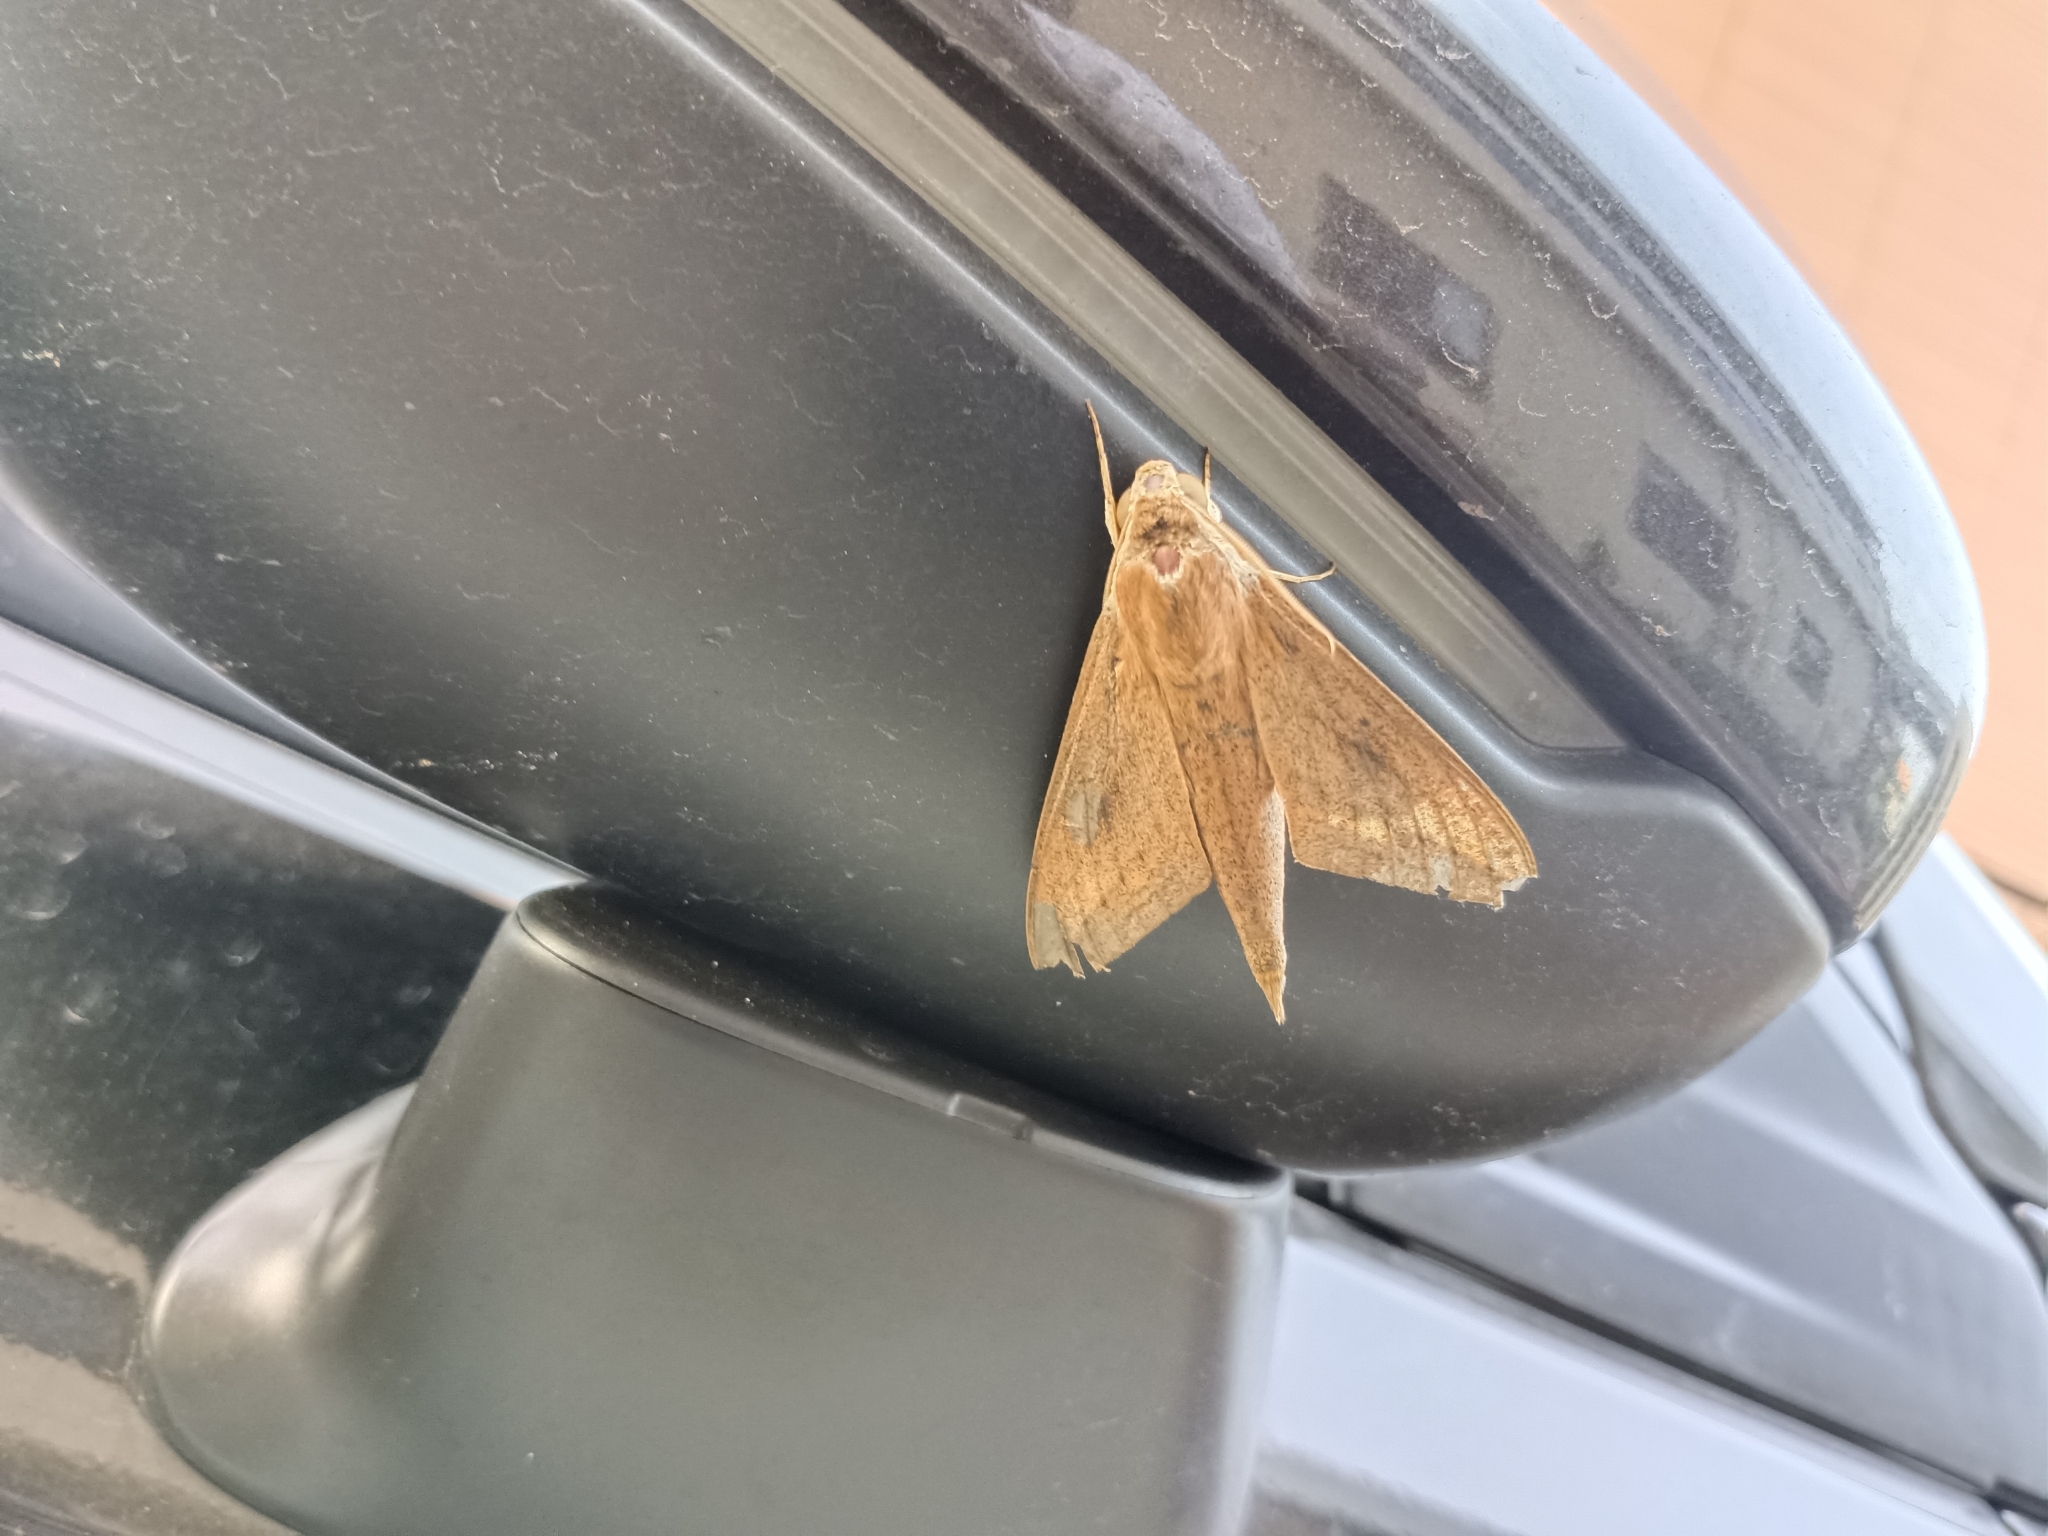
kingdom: Animalia
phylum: Arthropoda
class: Insecta
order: Lepidoptera
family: Sphingidae
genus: Theretra
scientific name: Theretra rhesus
